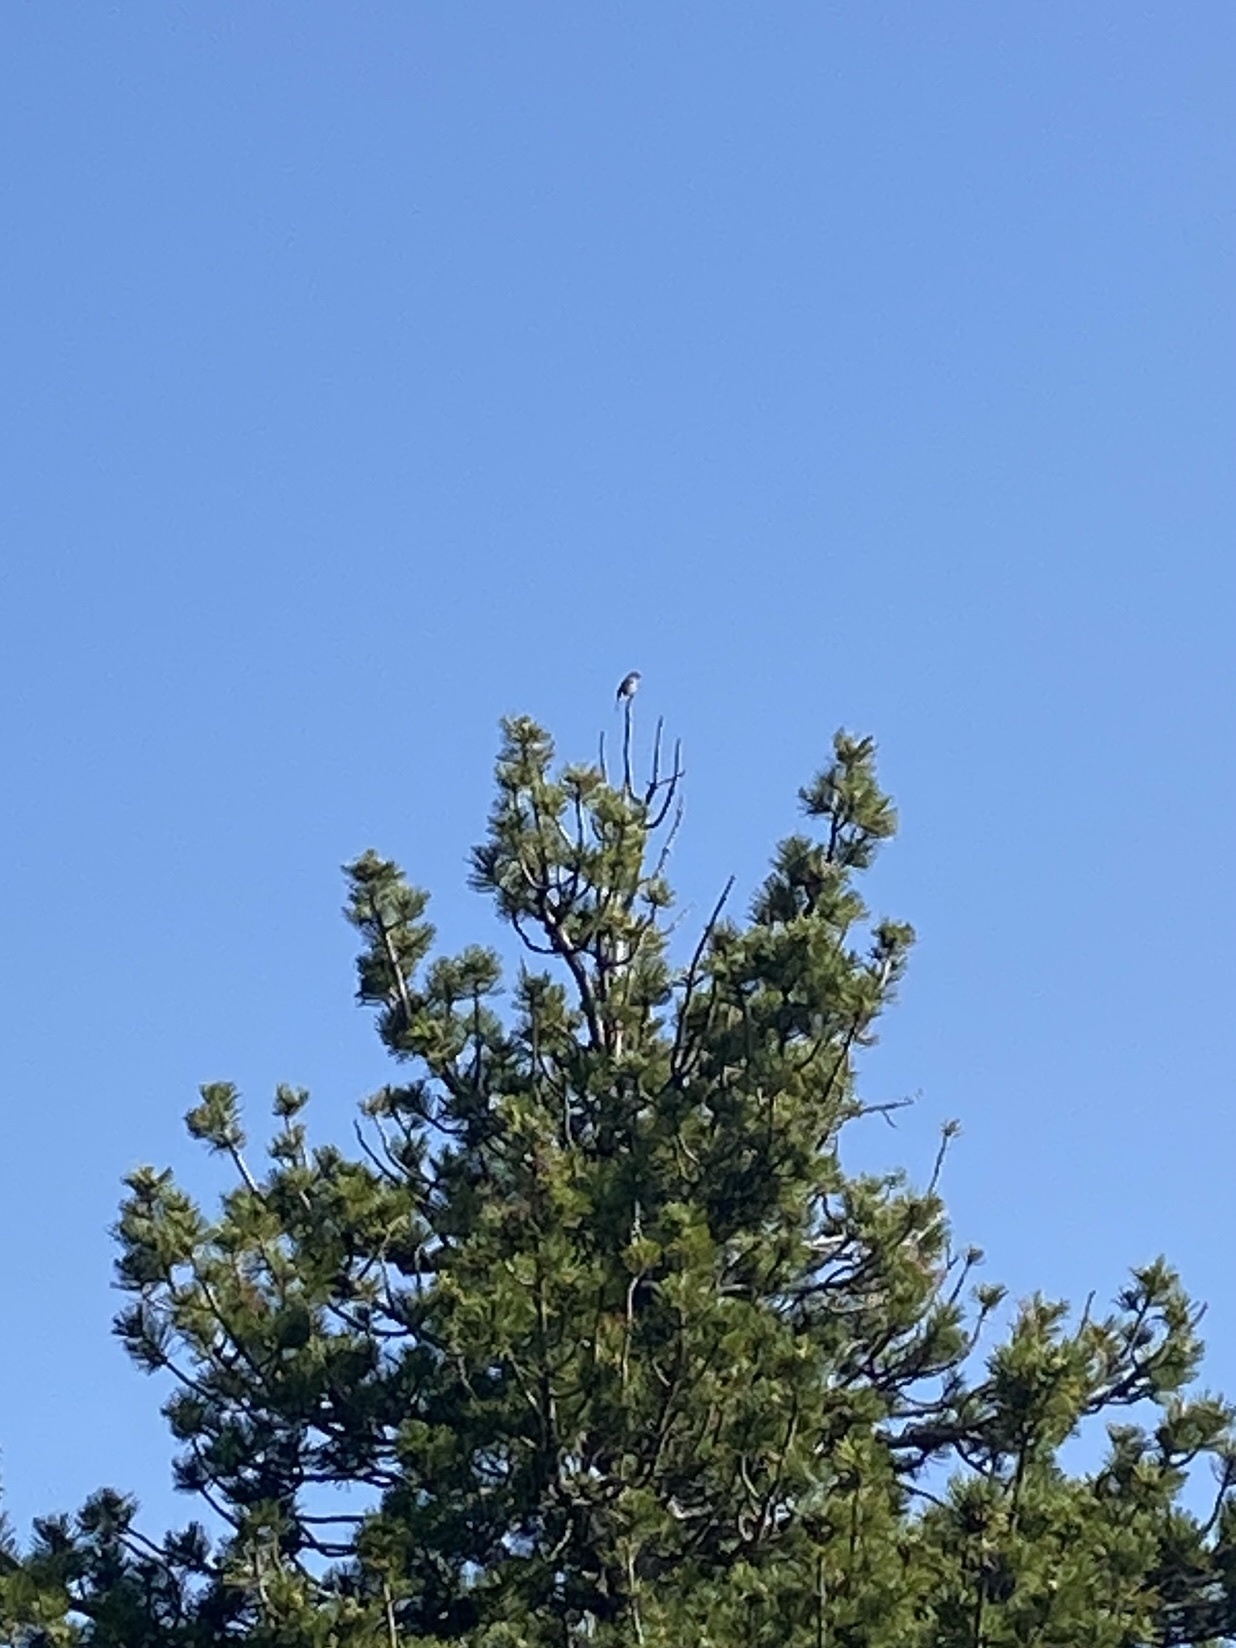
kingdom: Animalia
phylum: Chordata
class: Aves
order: Passeriformes
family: Prunellidae
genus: Prunella
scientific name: Prunella modularis
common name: Dunnock
